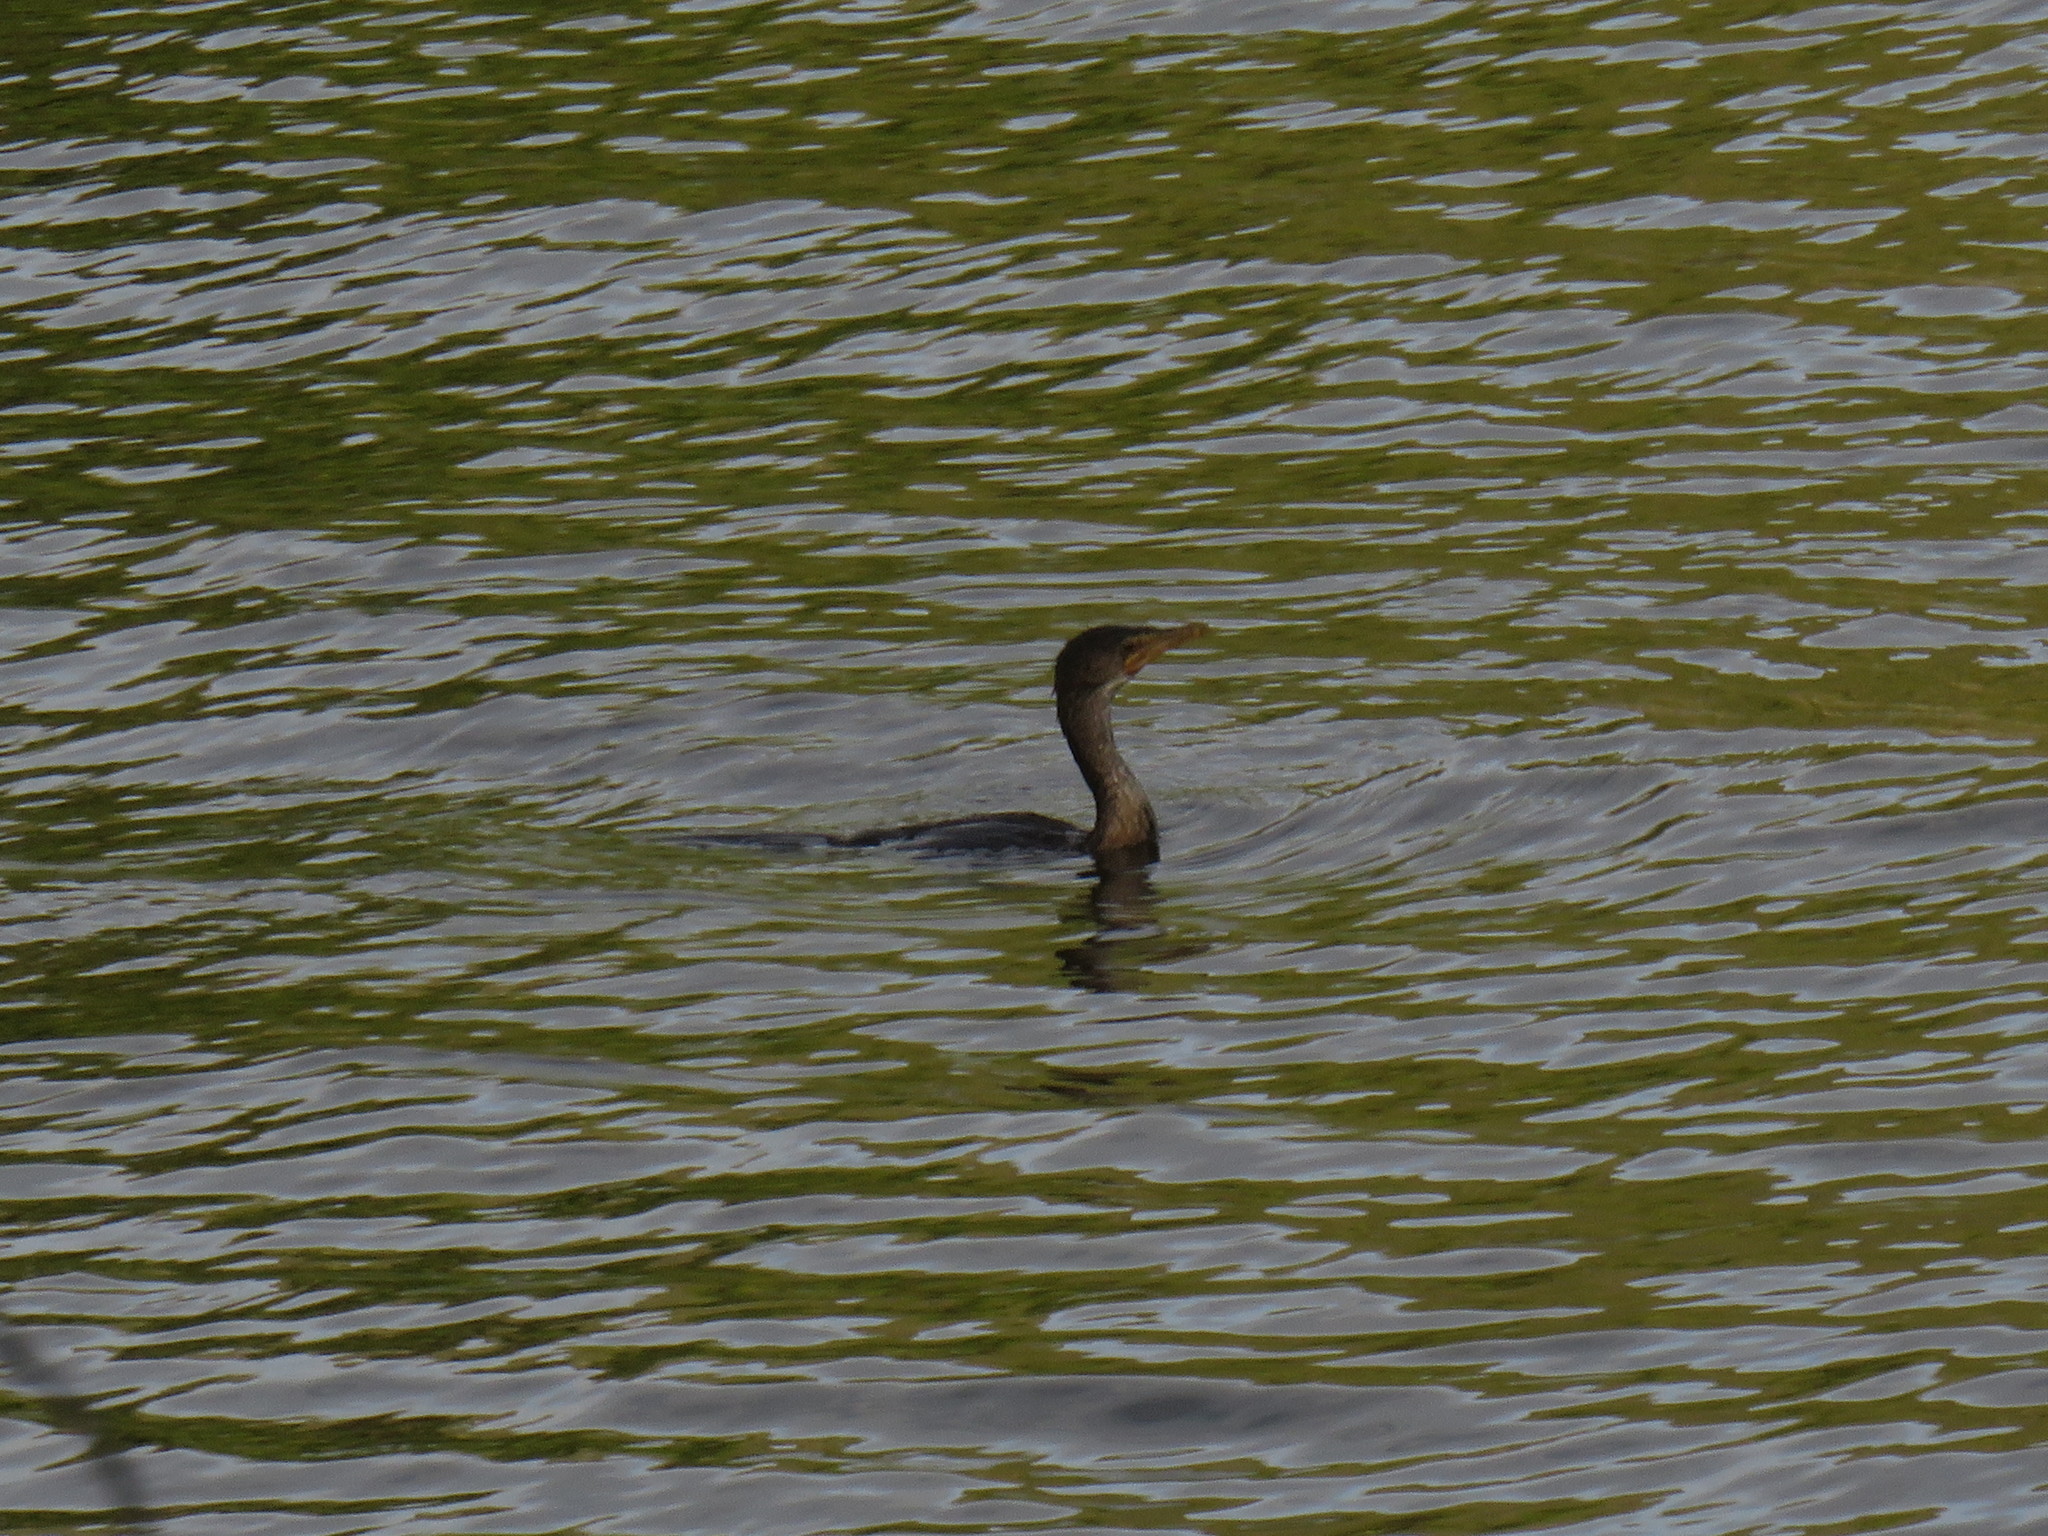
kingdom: Animalia
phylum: Chordata
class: Aves
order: Suliformes
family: Phalacrocoracidae
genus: Microcarbo
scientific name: Microcarbo africanus
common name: Long-tailed cormorant
